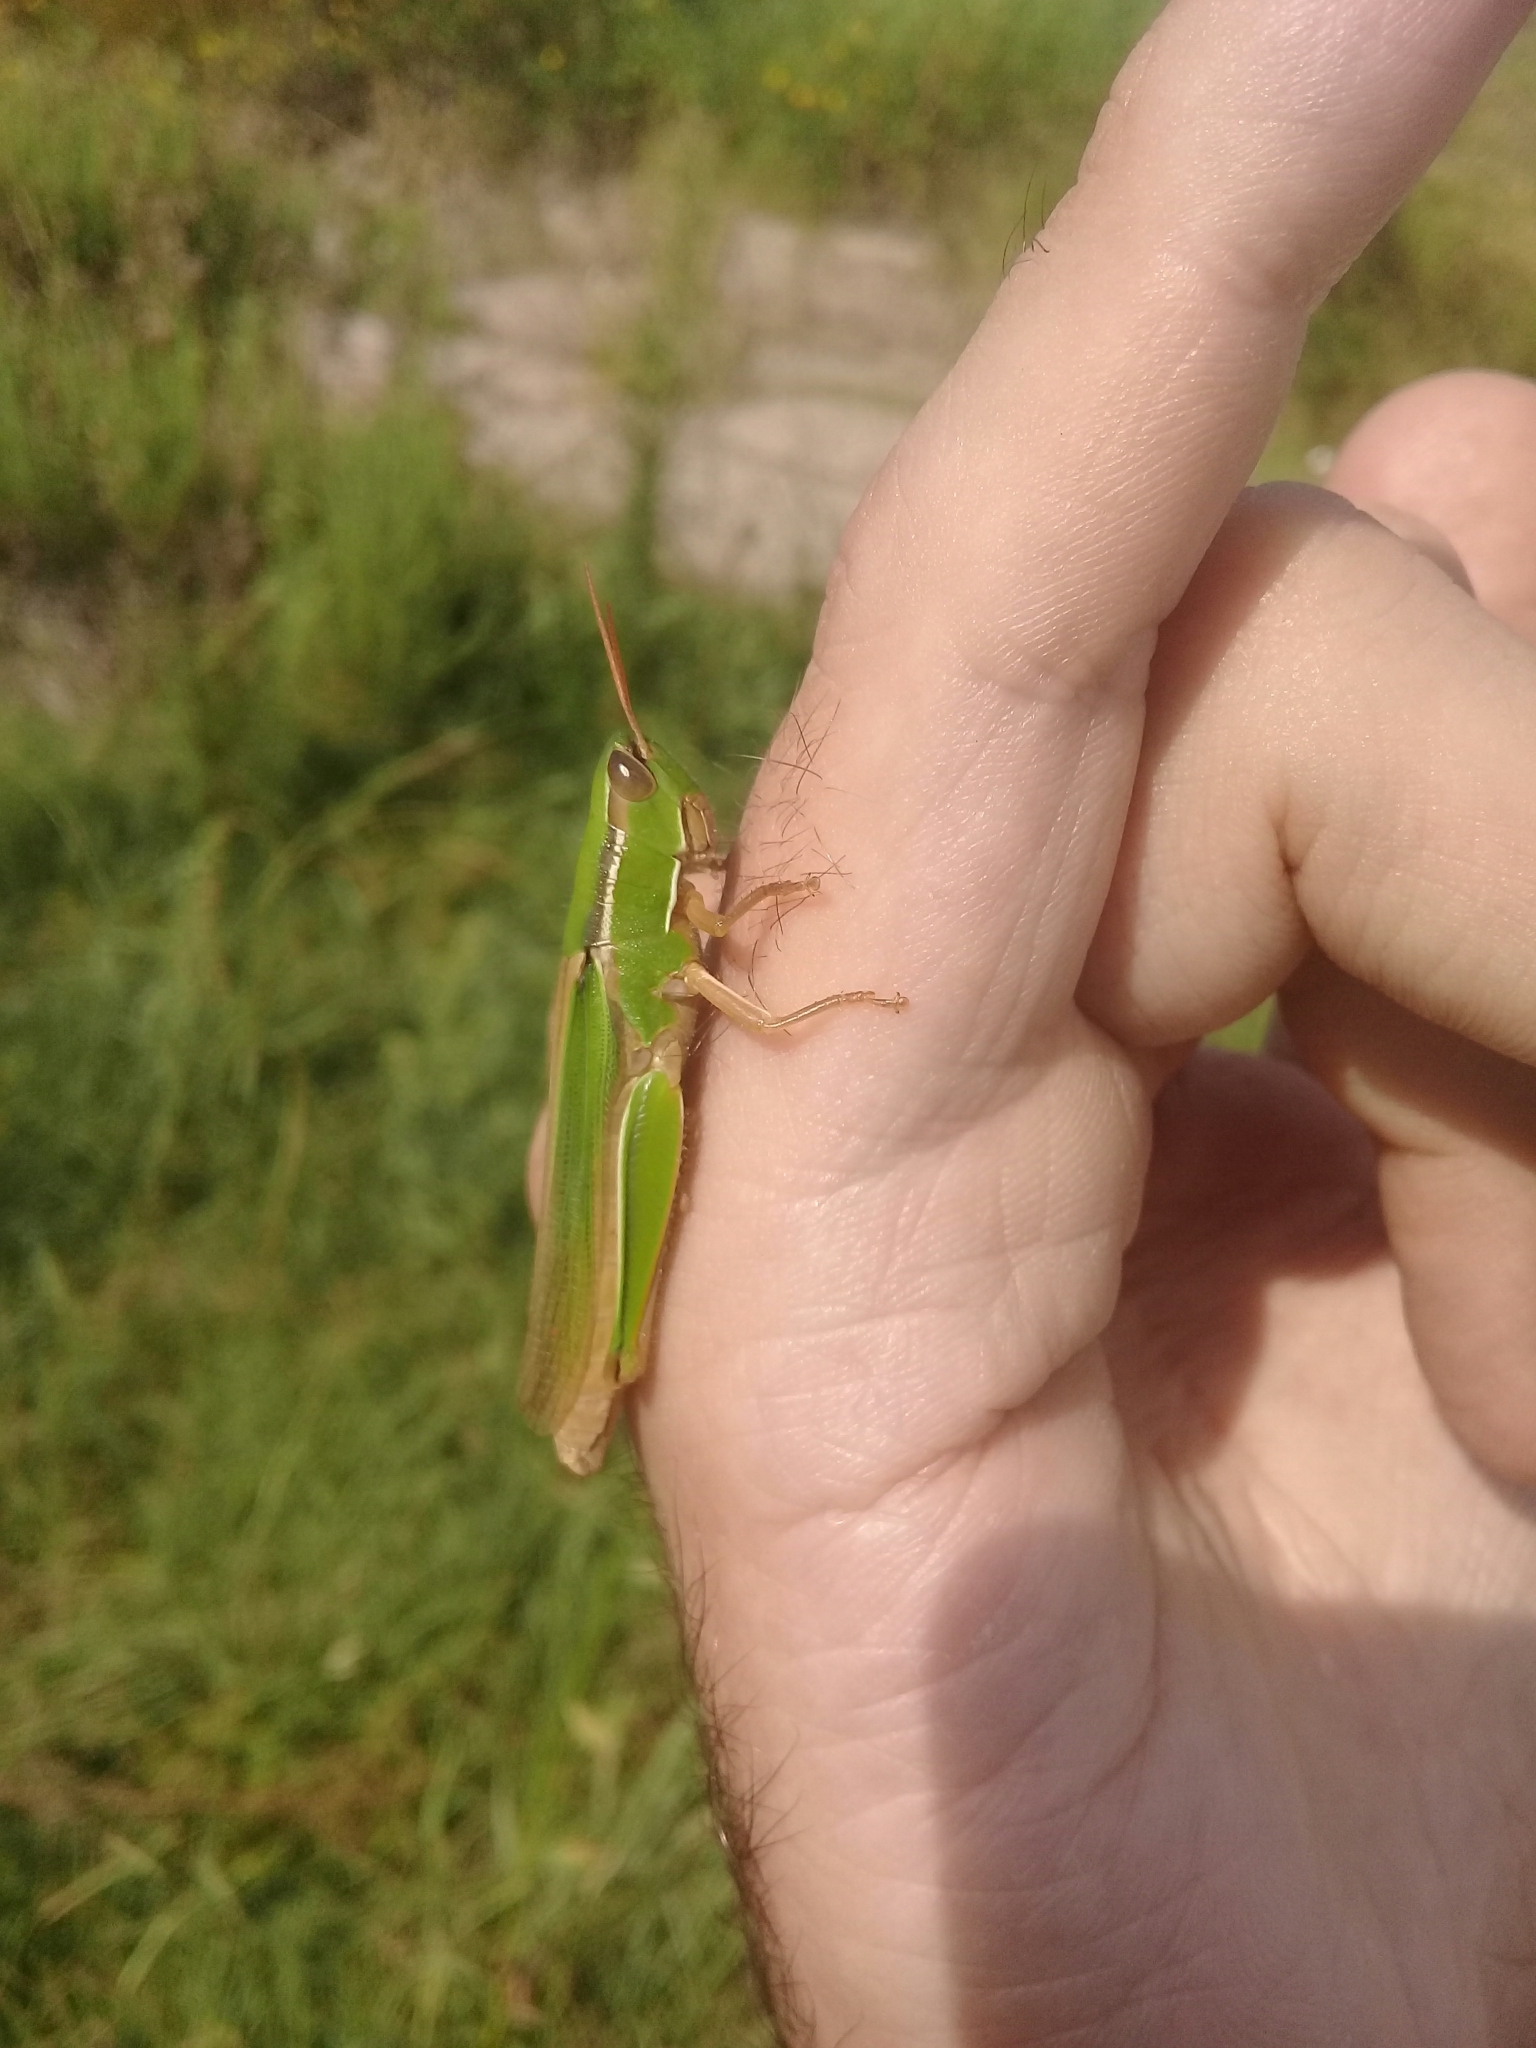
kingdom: Animalia
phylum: Arthropoda
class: Insecta
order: Orthoptera
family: Acrididae
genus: Aleuas
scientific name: Aleuas lineatus
